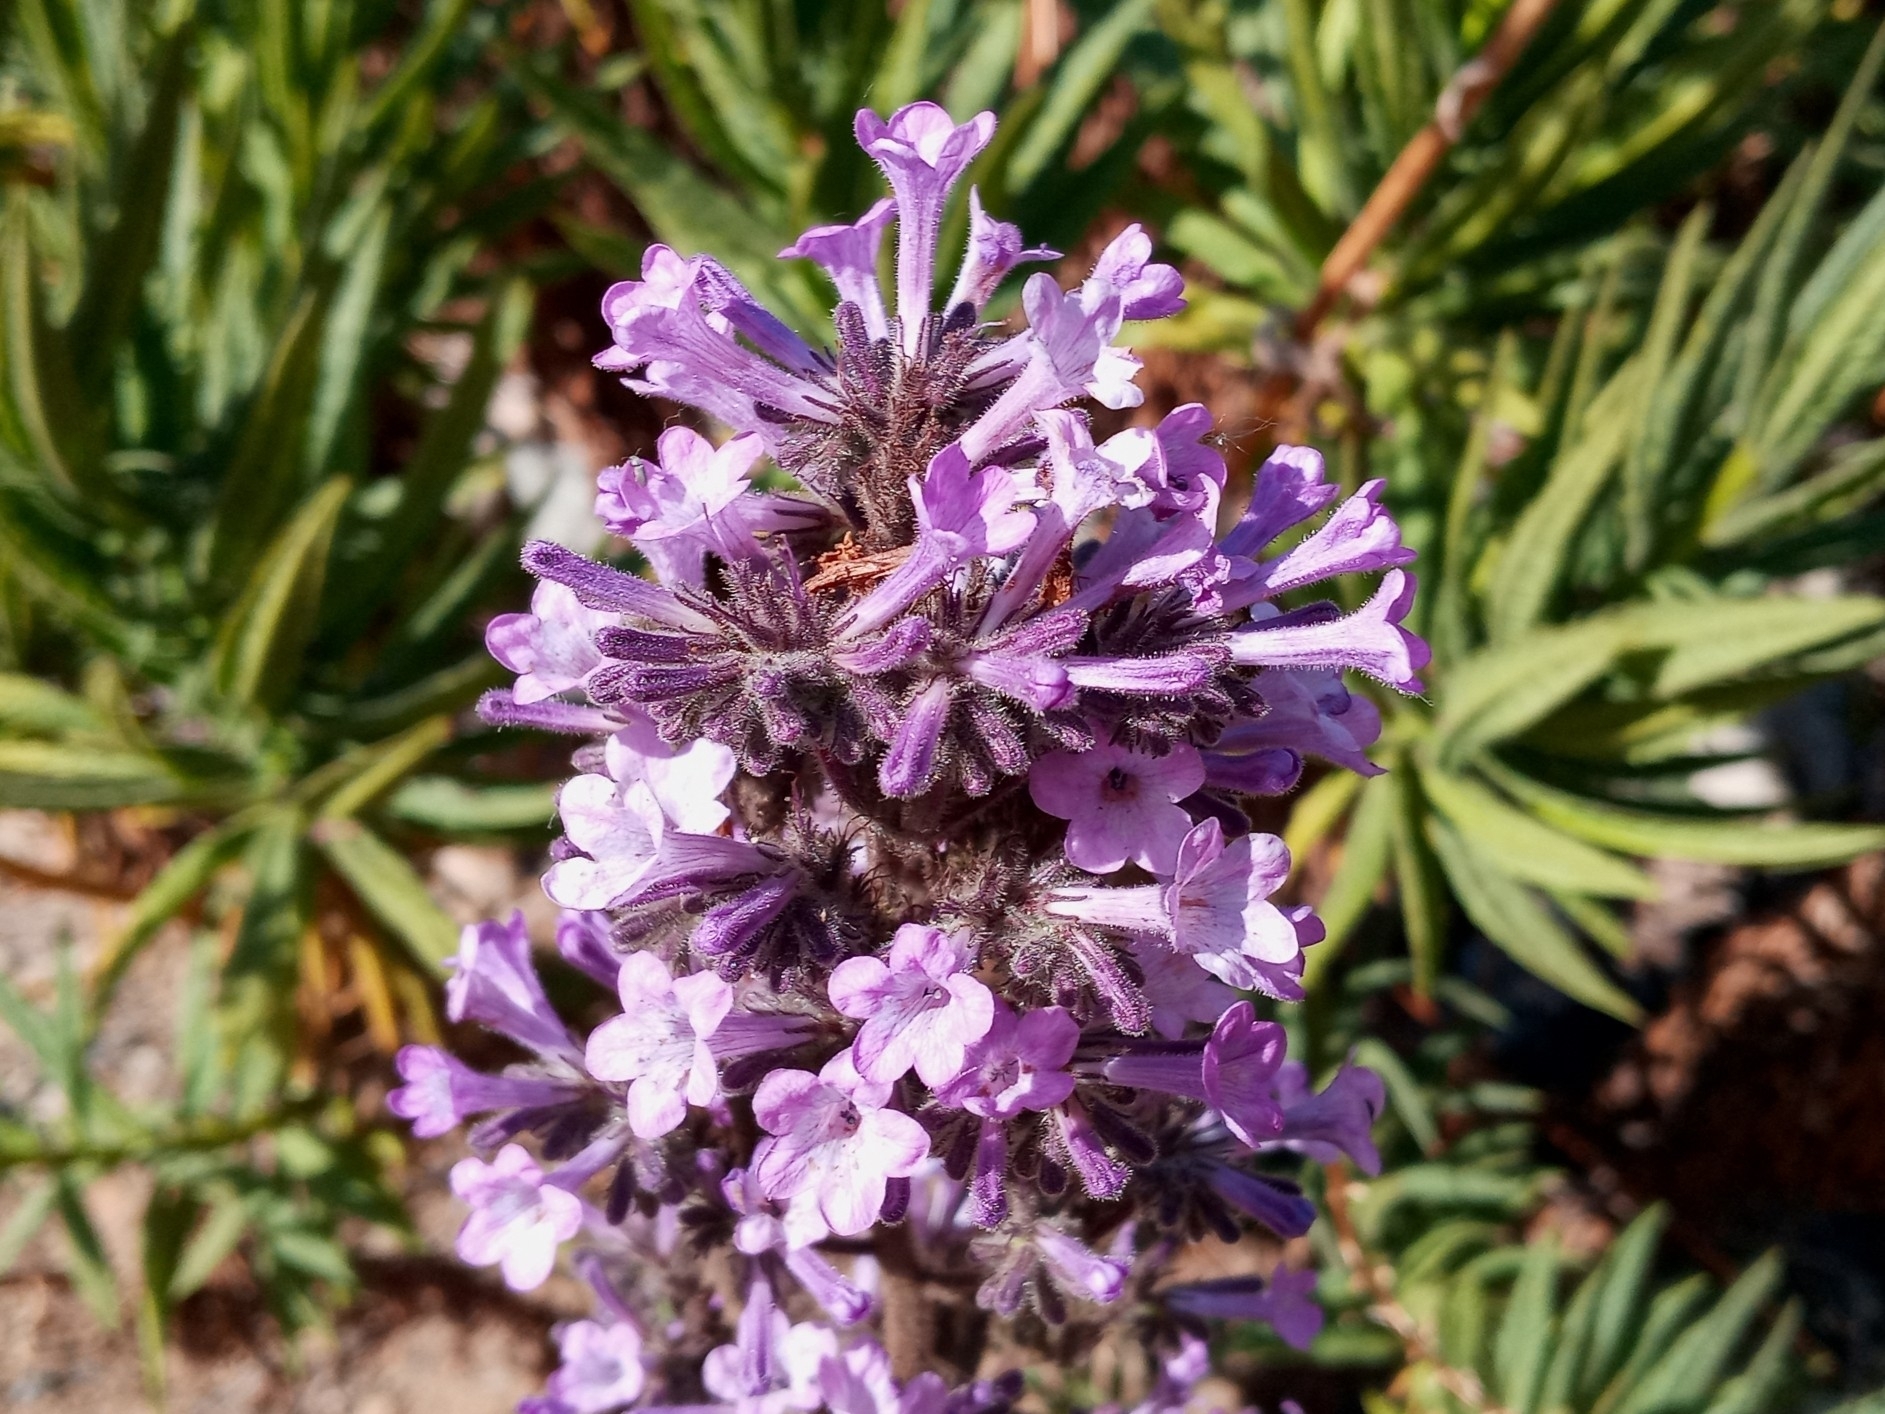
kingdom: Plantae
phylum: Tracheophyta
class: Magnoliopsida
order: Boraginales
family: Namaceae
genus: Turricula
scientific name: Turricula parryi
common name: Poodle-dog-bush
